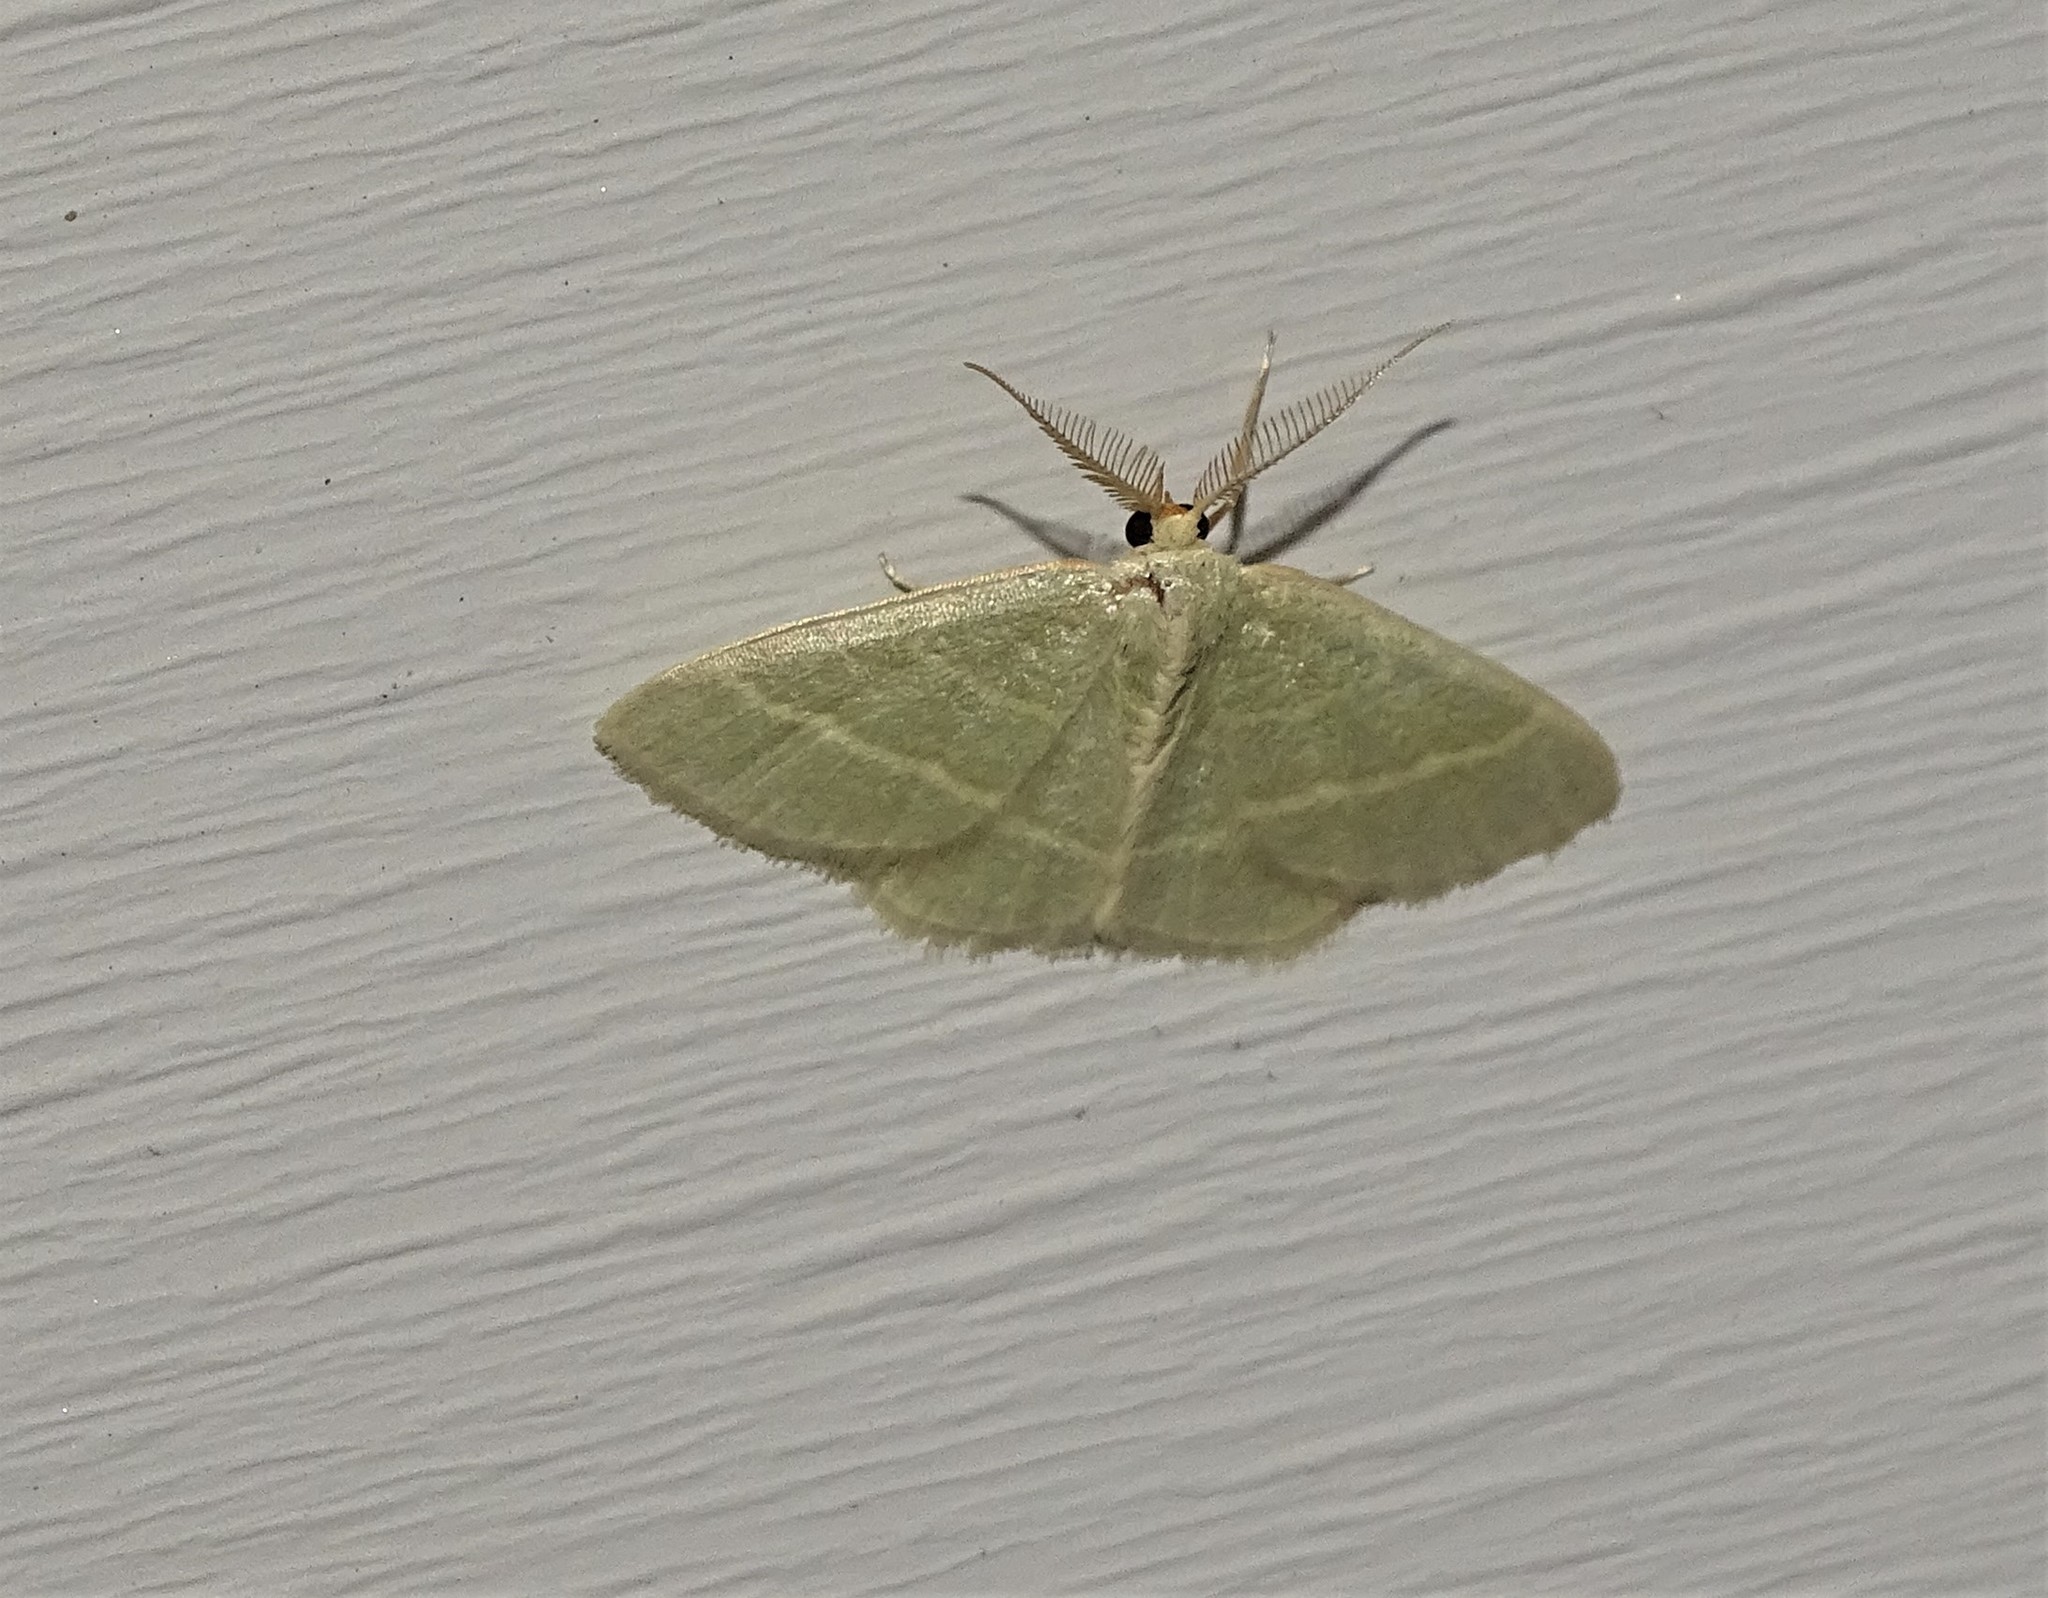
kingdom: Animalia
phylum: Arthropoda
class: Insecta
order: Lepidoptera
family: Geometridae
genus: Chlorochlamys
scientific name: Chlorochlamys chloroleucaria
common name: Blackberry looper
